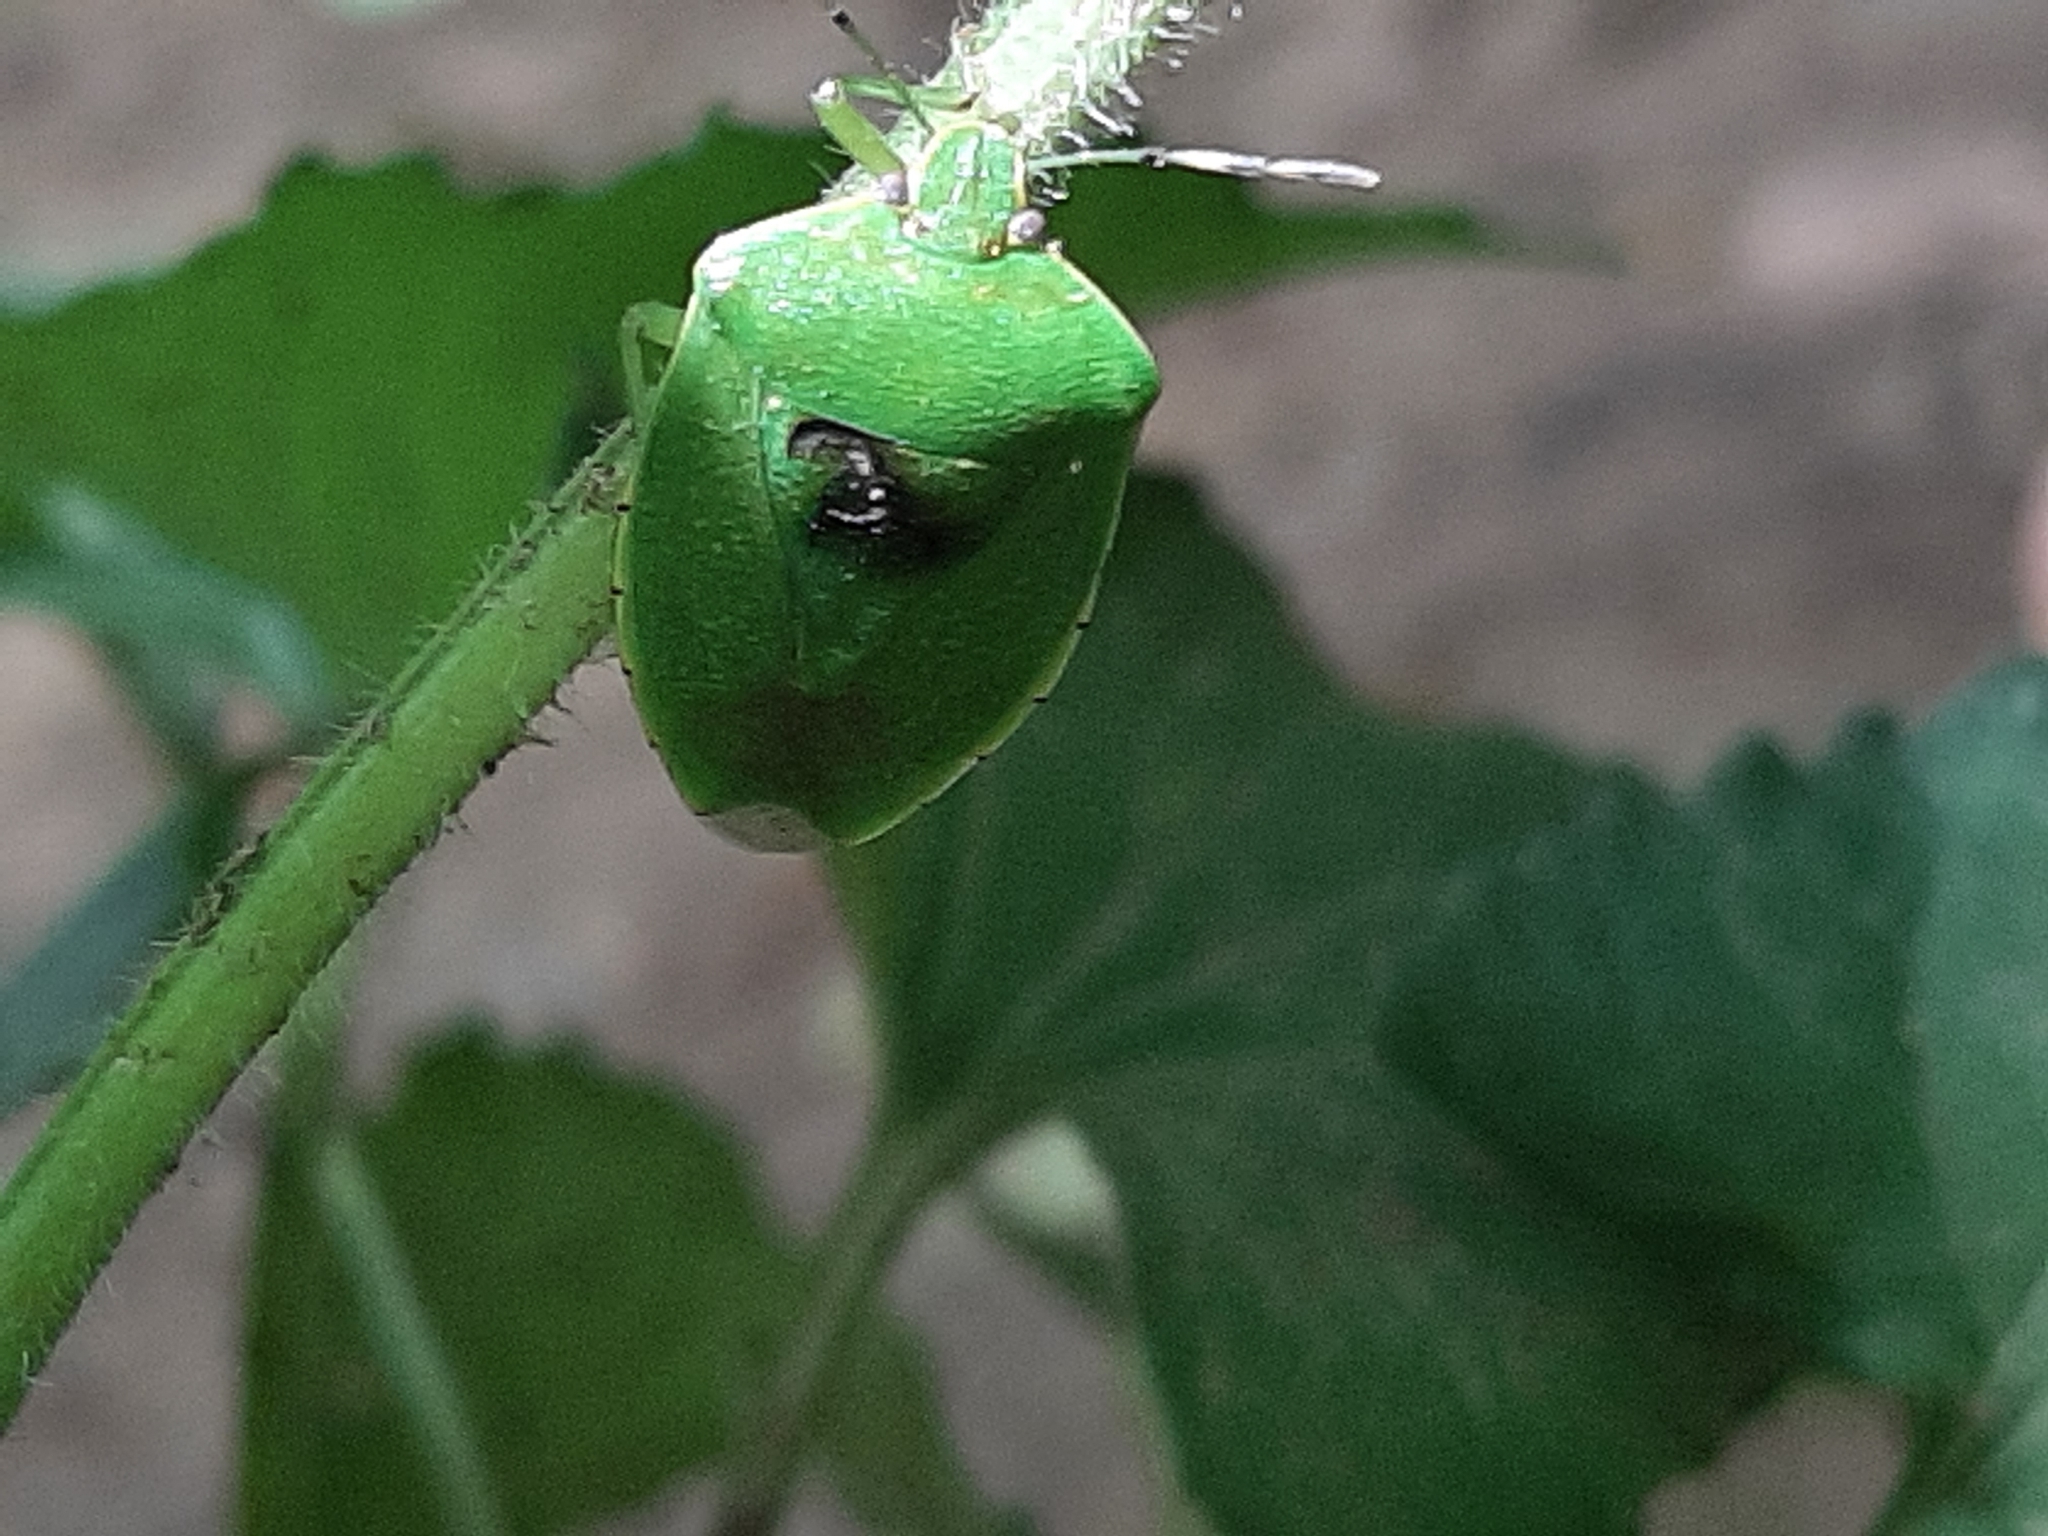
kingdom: Animalia
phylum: Arthropoda
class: Insecta
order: Hemiptera
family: Pentatomidae
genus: Chinavia
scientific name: Chinavia hilaris
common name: Green stink bug
